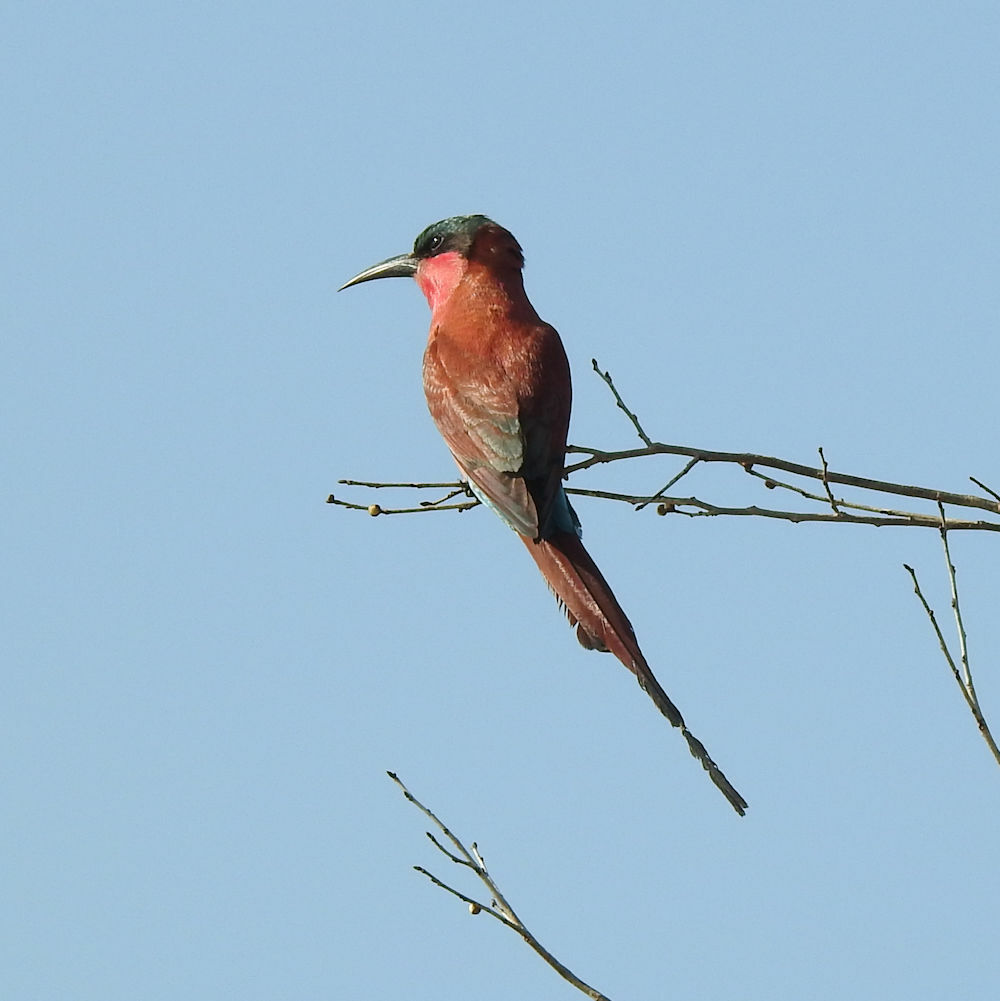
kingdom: Animalia
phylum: Chordata
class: Aves
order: Coraciiformes
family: Meropidae
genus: Merops
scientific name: Merops nubicoides
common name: Southern carmine bee-eater
